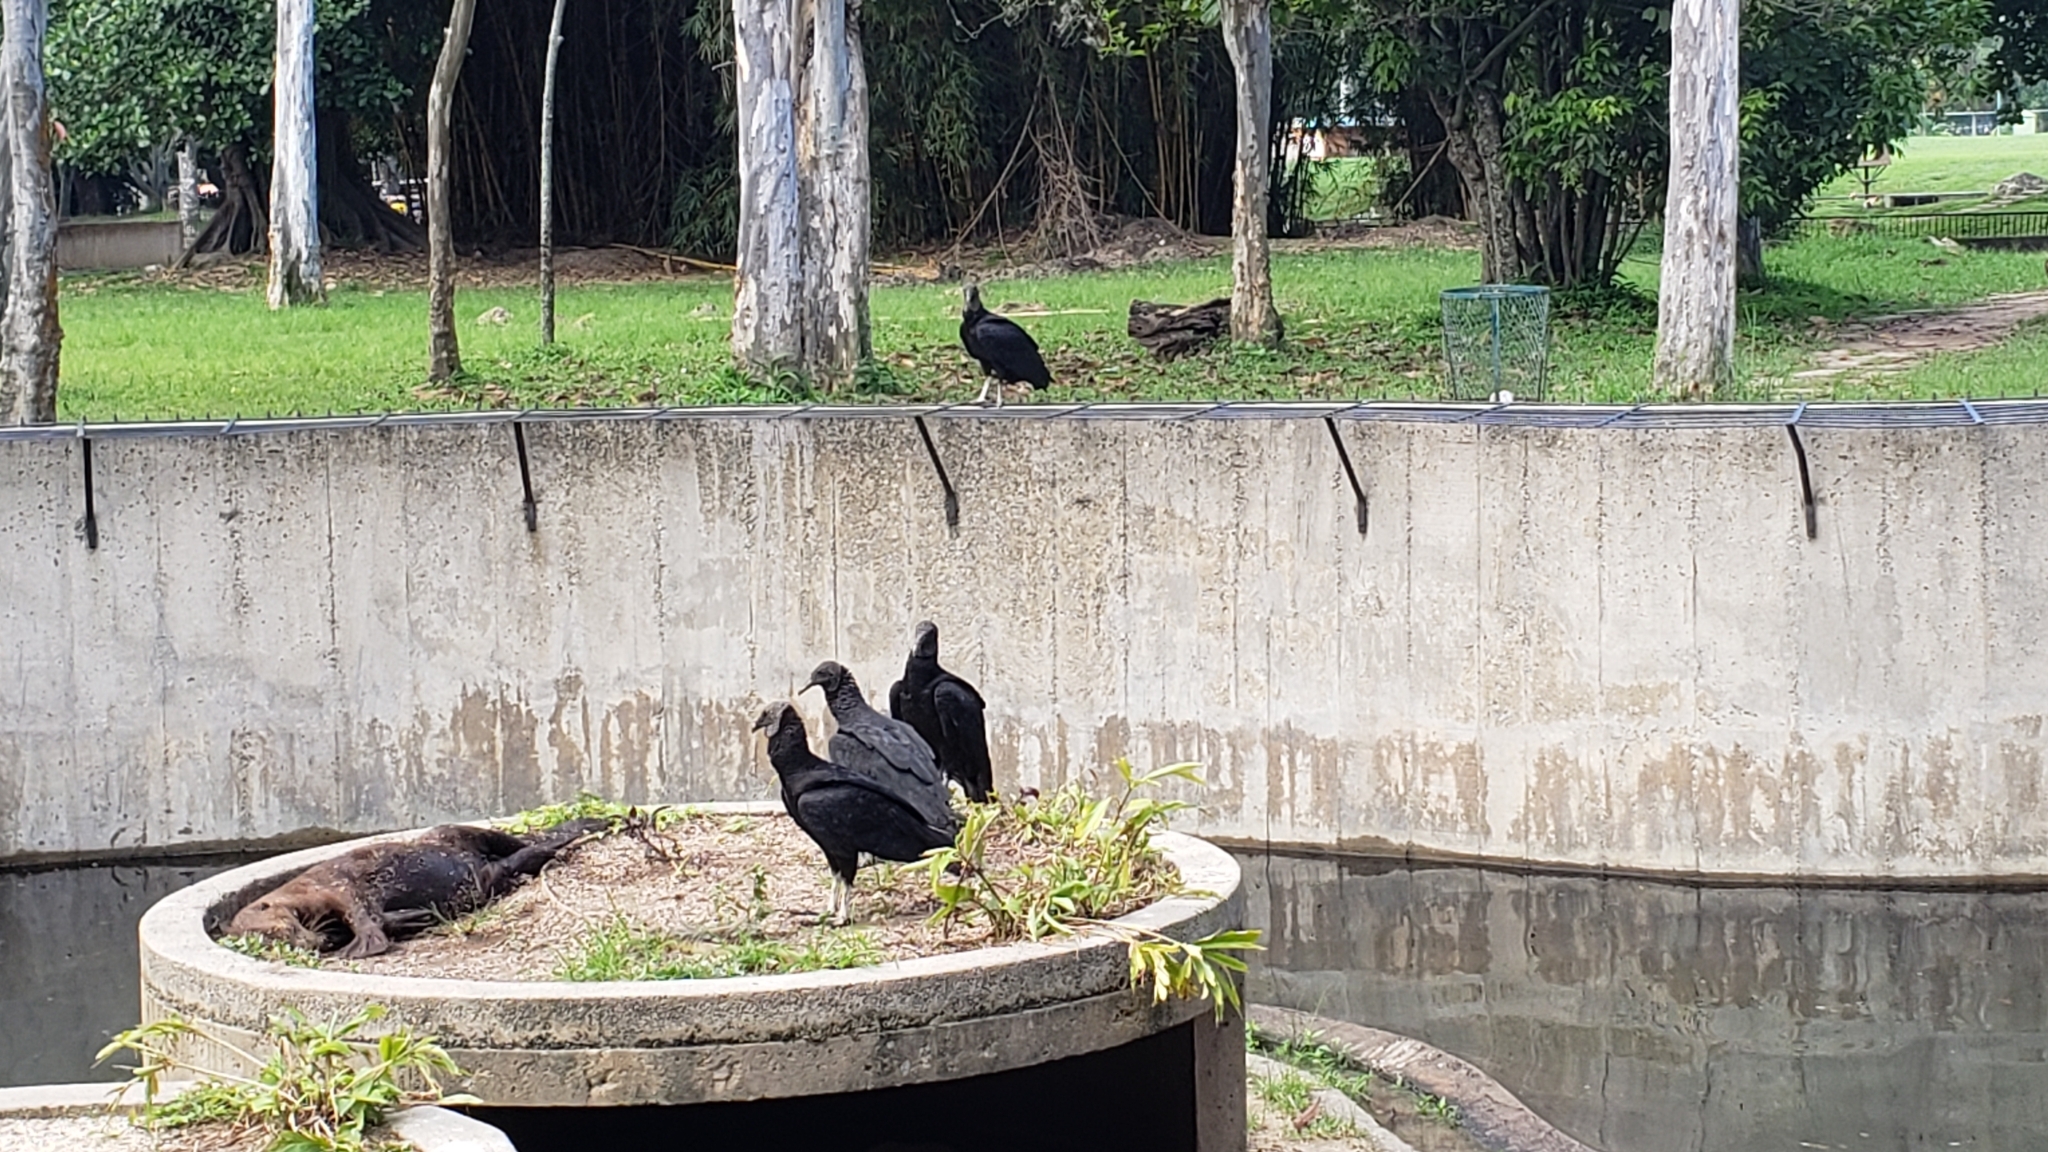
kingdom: Animalia
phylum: Chordata
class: Aves
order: Accipitriformes
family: Cathartidae
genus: Coragyps
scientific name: Coragyps atratus
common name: Black vulture
